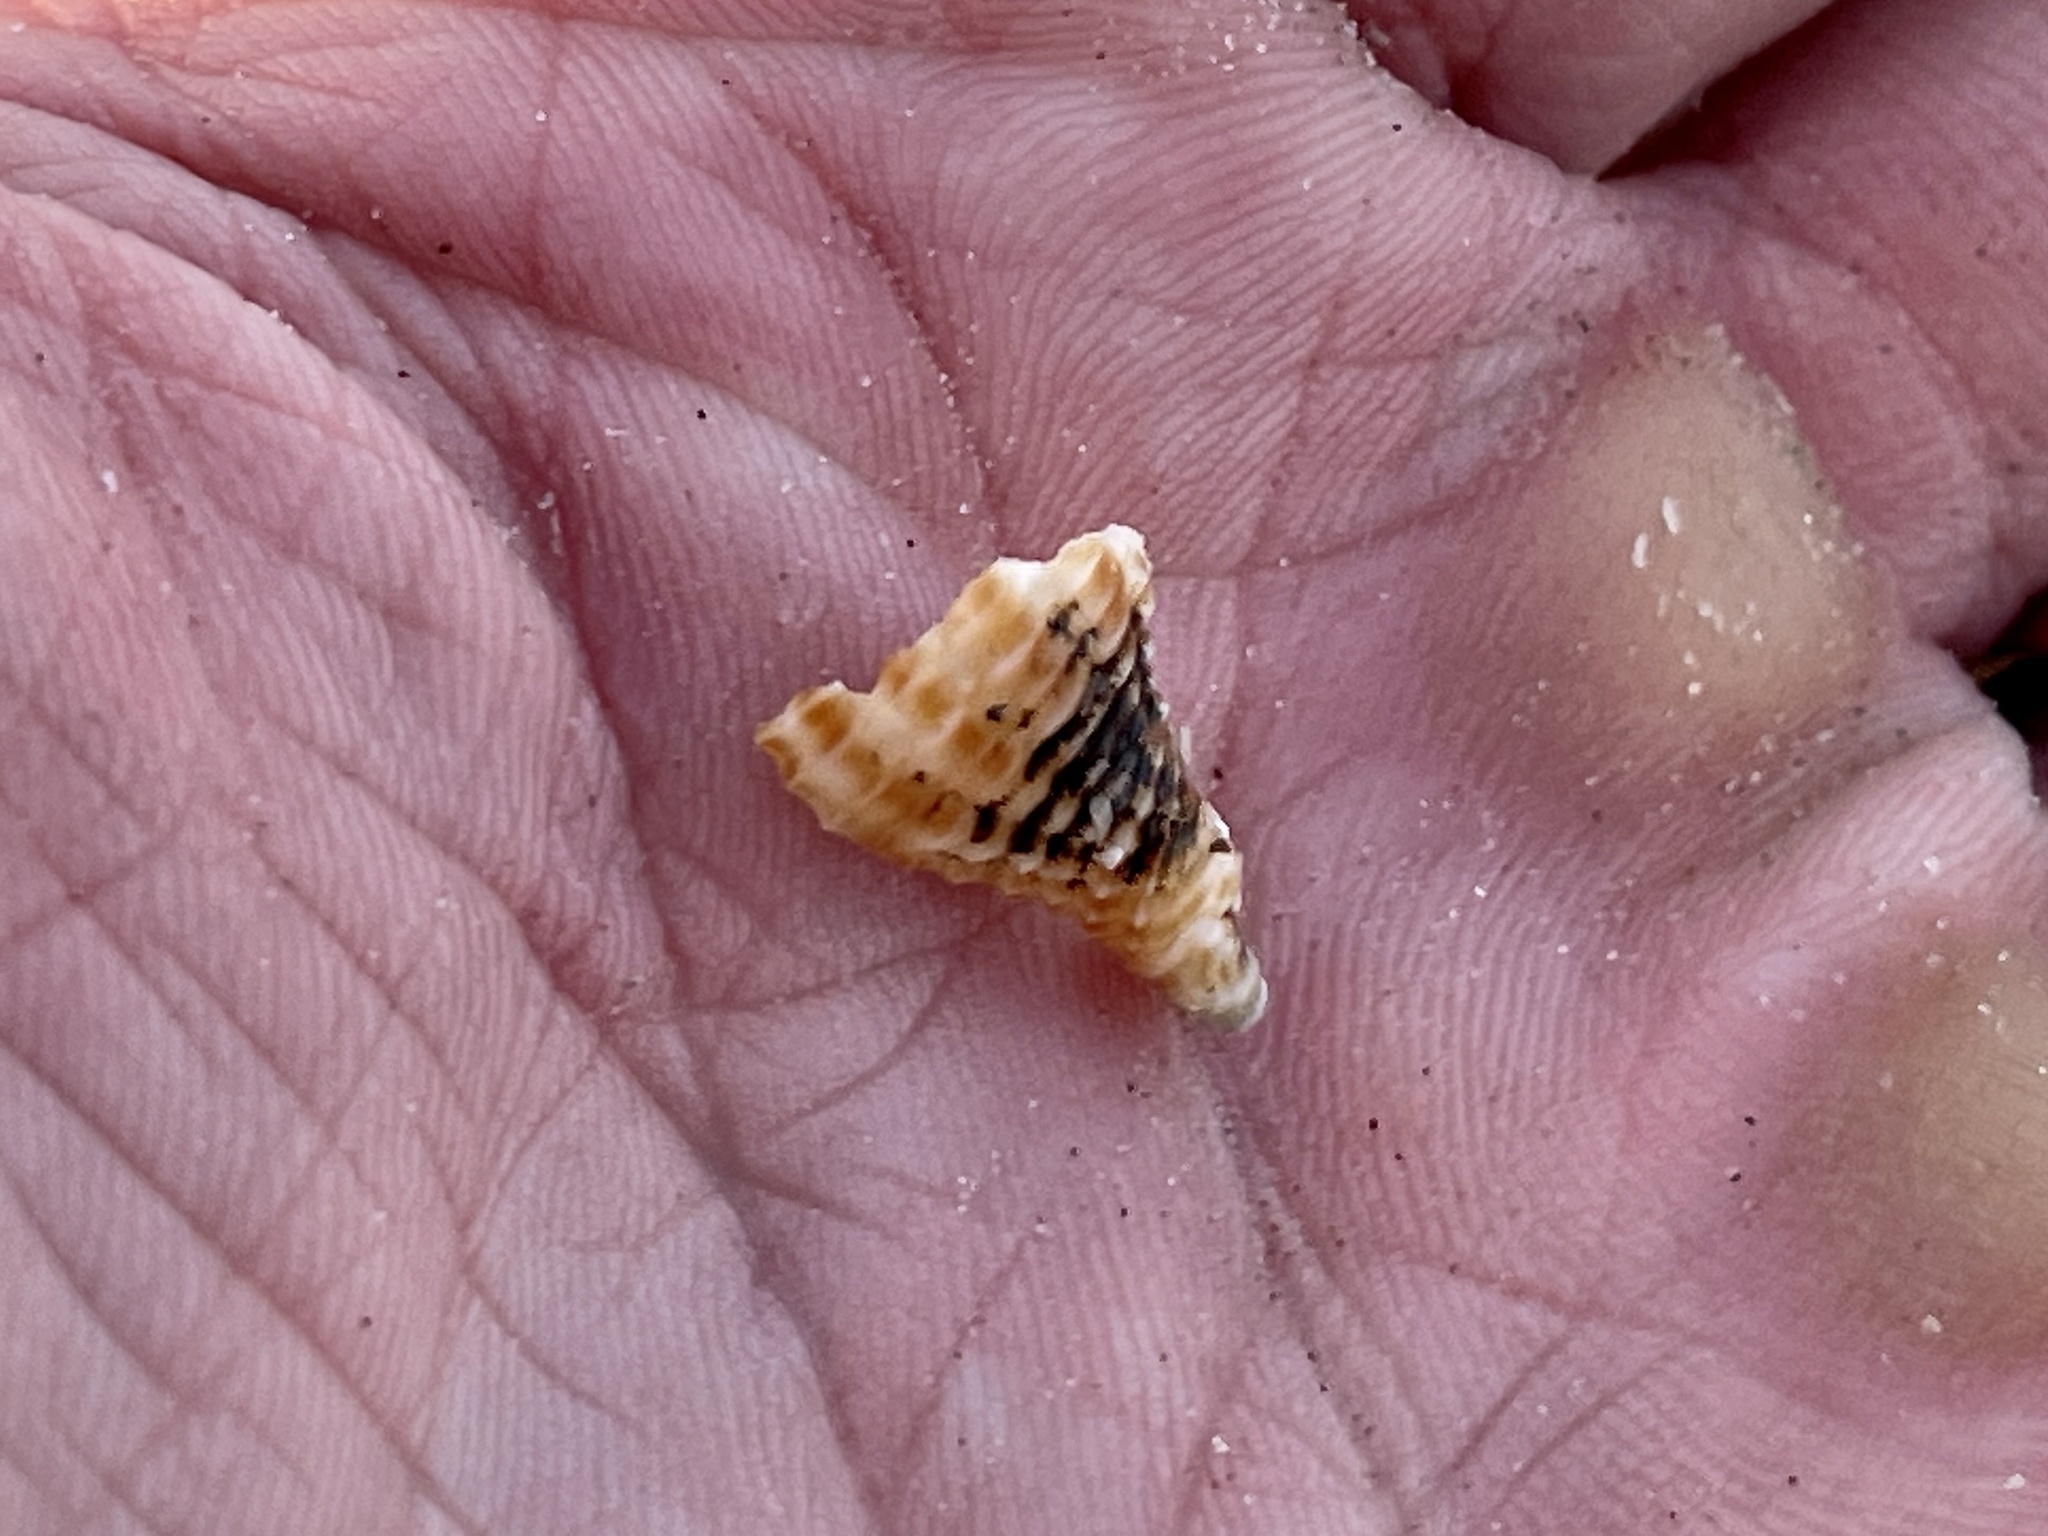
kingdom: Animalia
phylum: Mollusca
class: Gastropoda
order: Neogastropoda
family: Pisaniidae
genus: Solenosteira
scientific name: Solenosteira cancellaria
